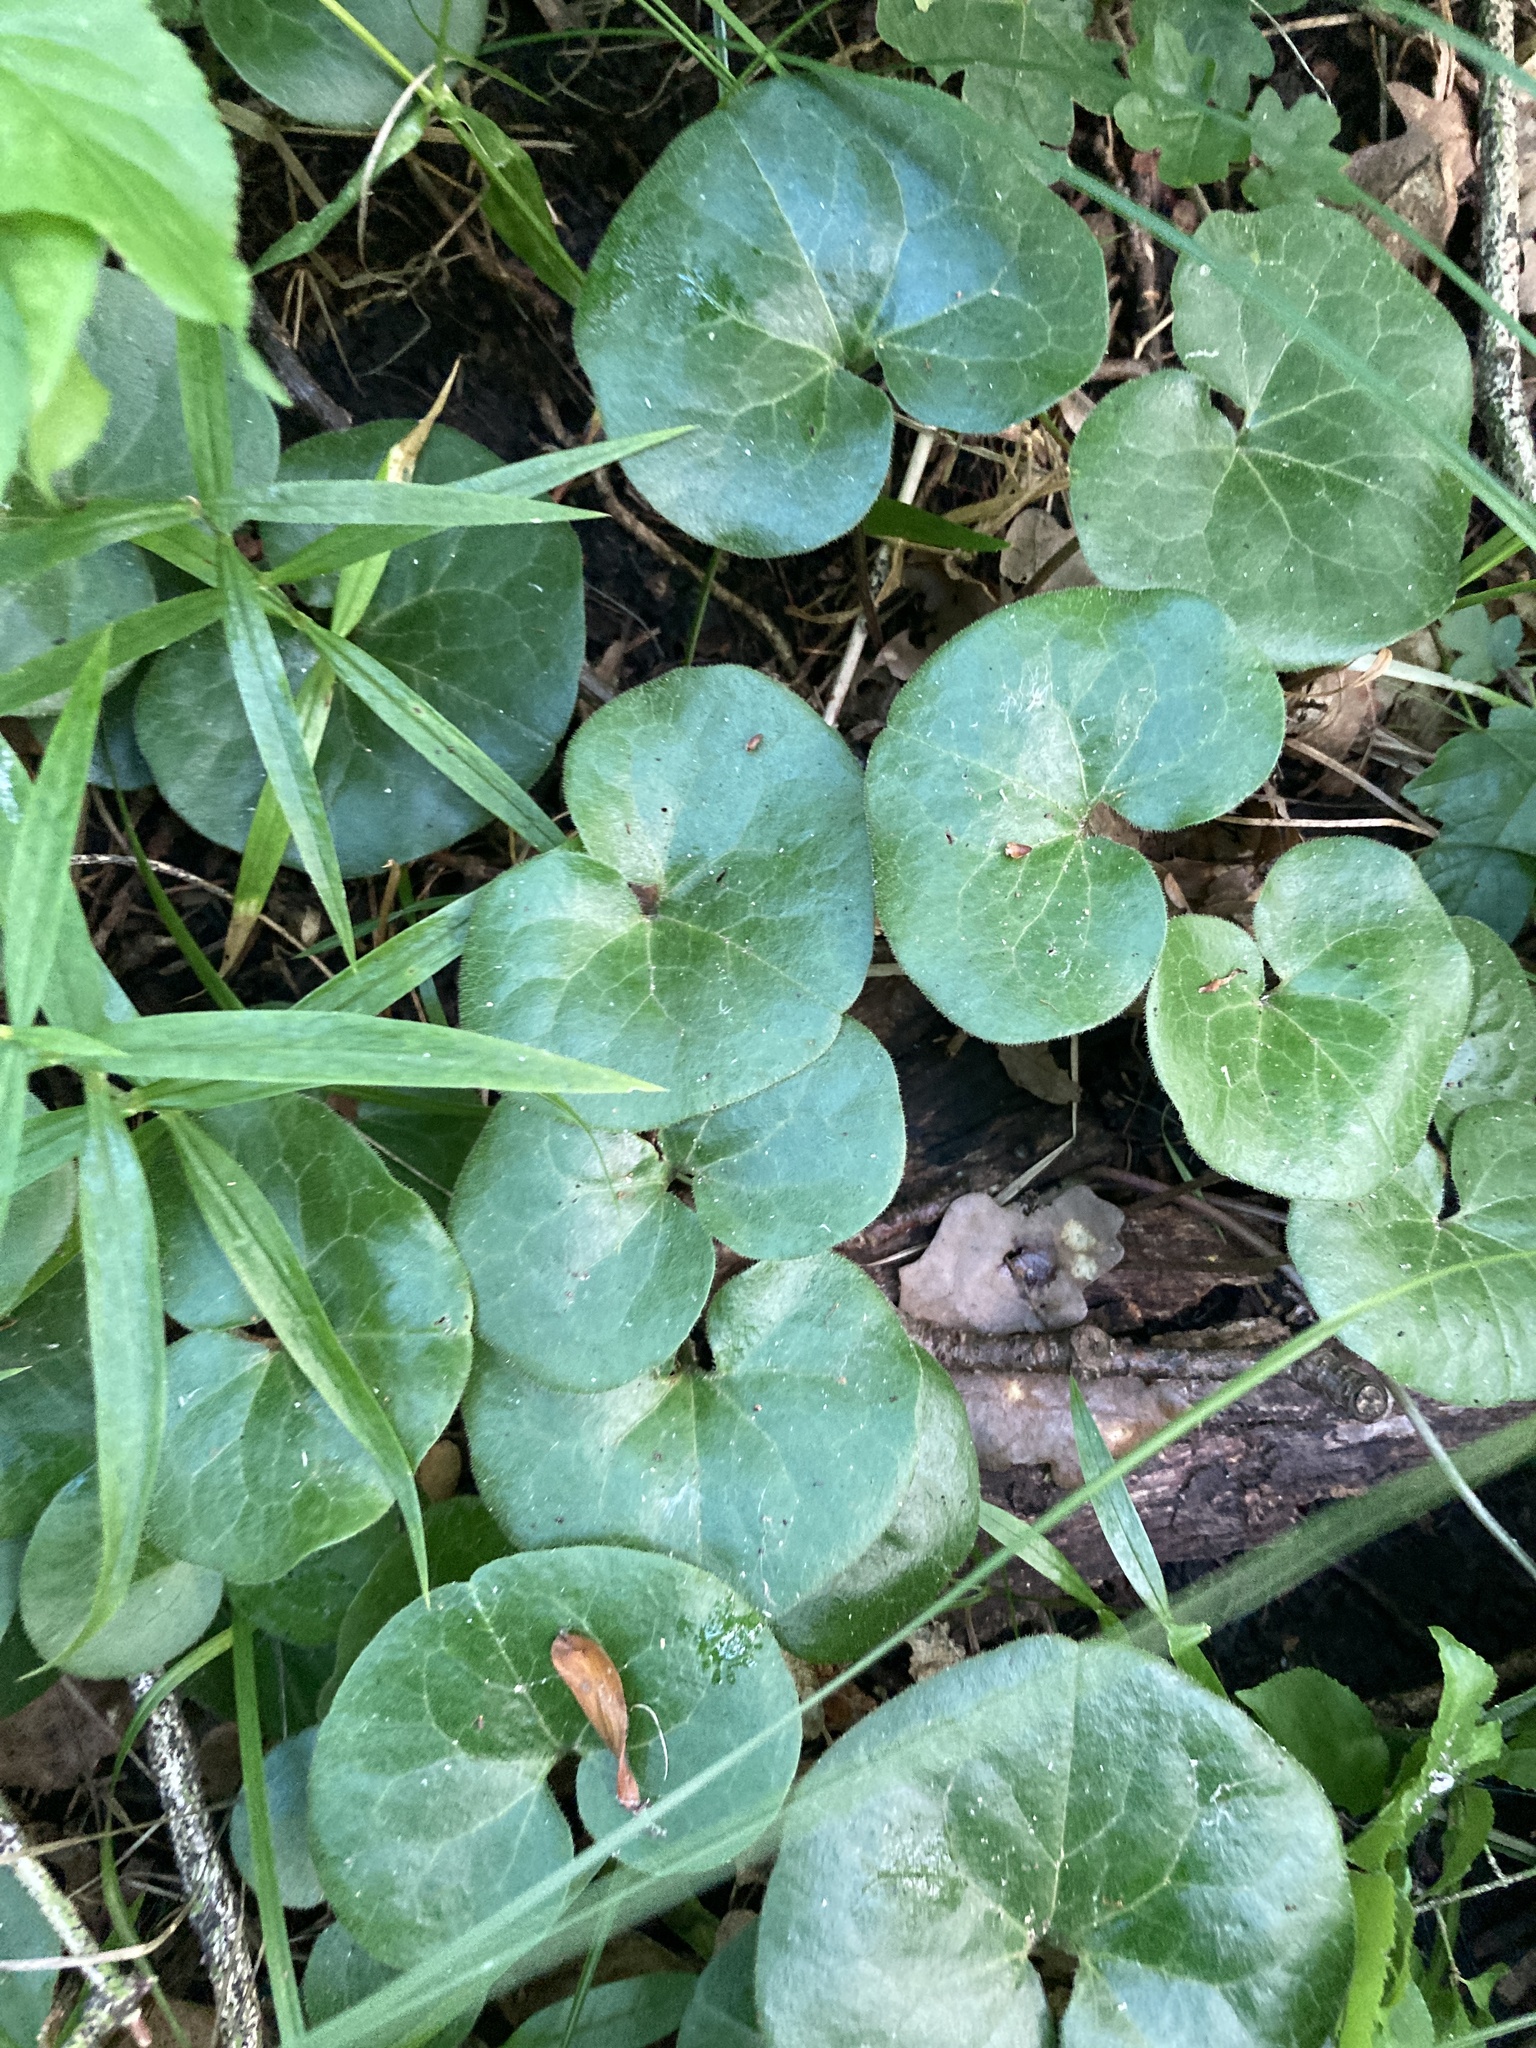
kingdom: Plantae
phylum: Tracheophyta
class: Magnoliopsida
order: Piperales
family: Aristolochiaceae
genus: Asarum
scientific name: Asarum europaeum
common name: Asarabacca
